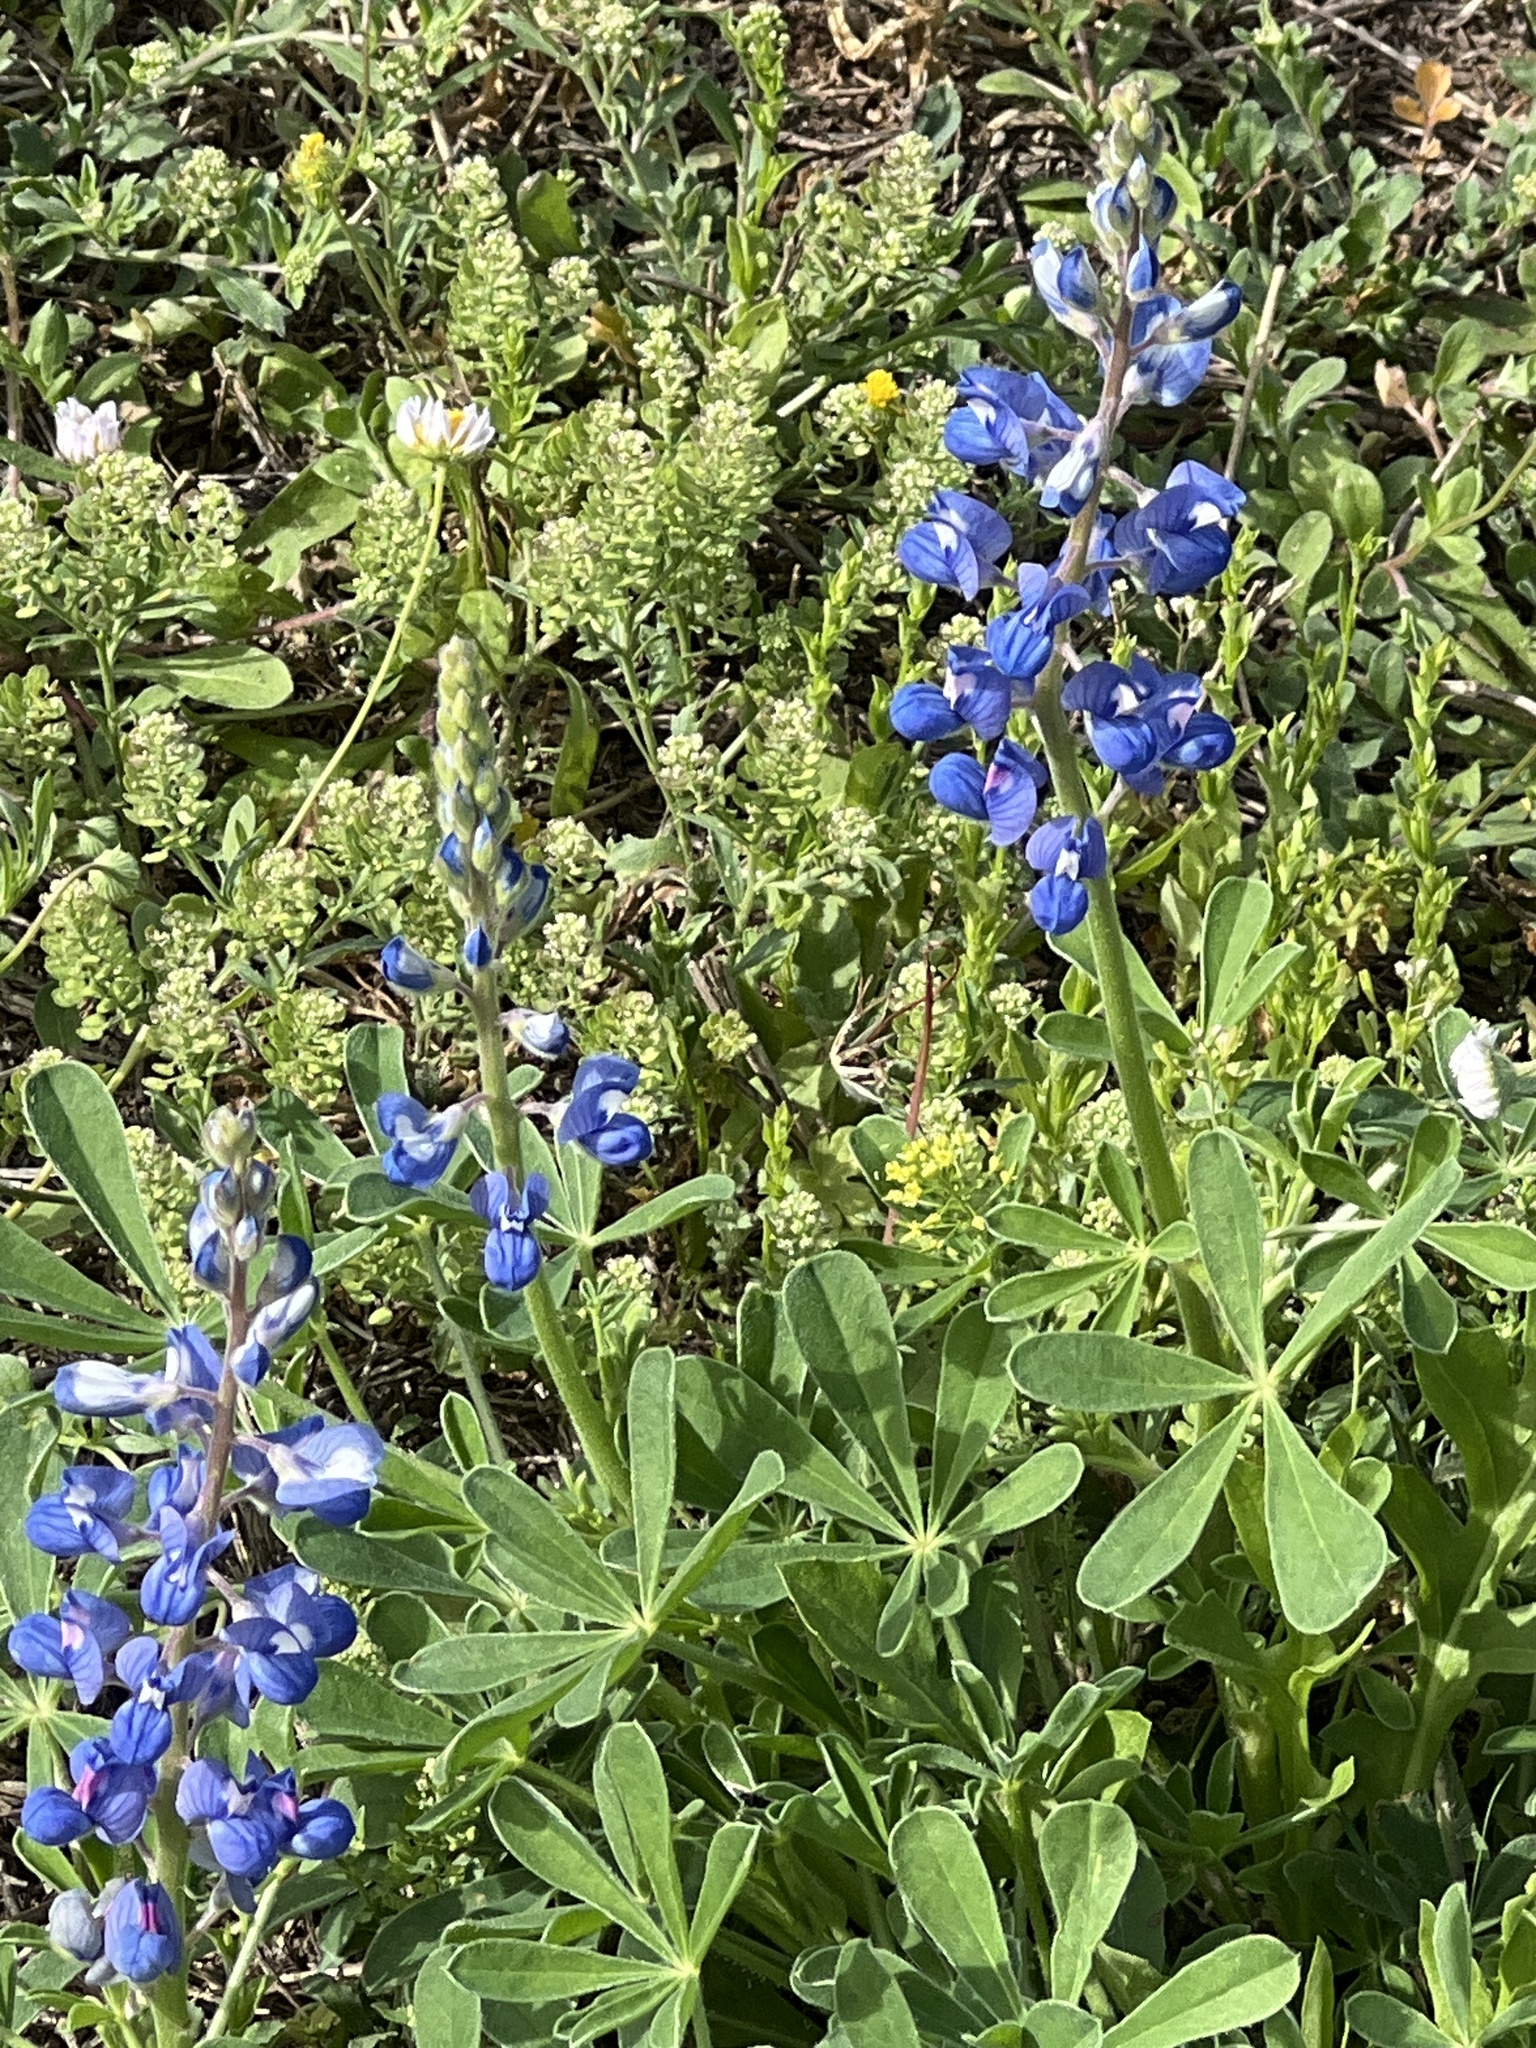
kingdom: Plantae
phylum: Tracheophyta
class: Magnoliopsida
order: Fabales
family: Fabaceae
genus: Lupinus
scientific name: Lupinus subcarnosus
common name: Texas bluebonnet
